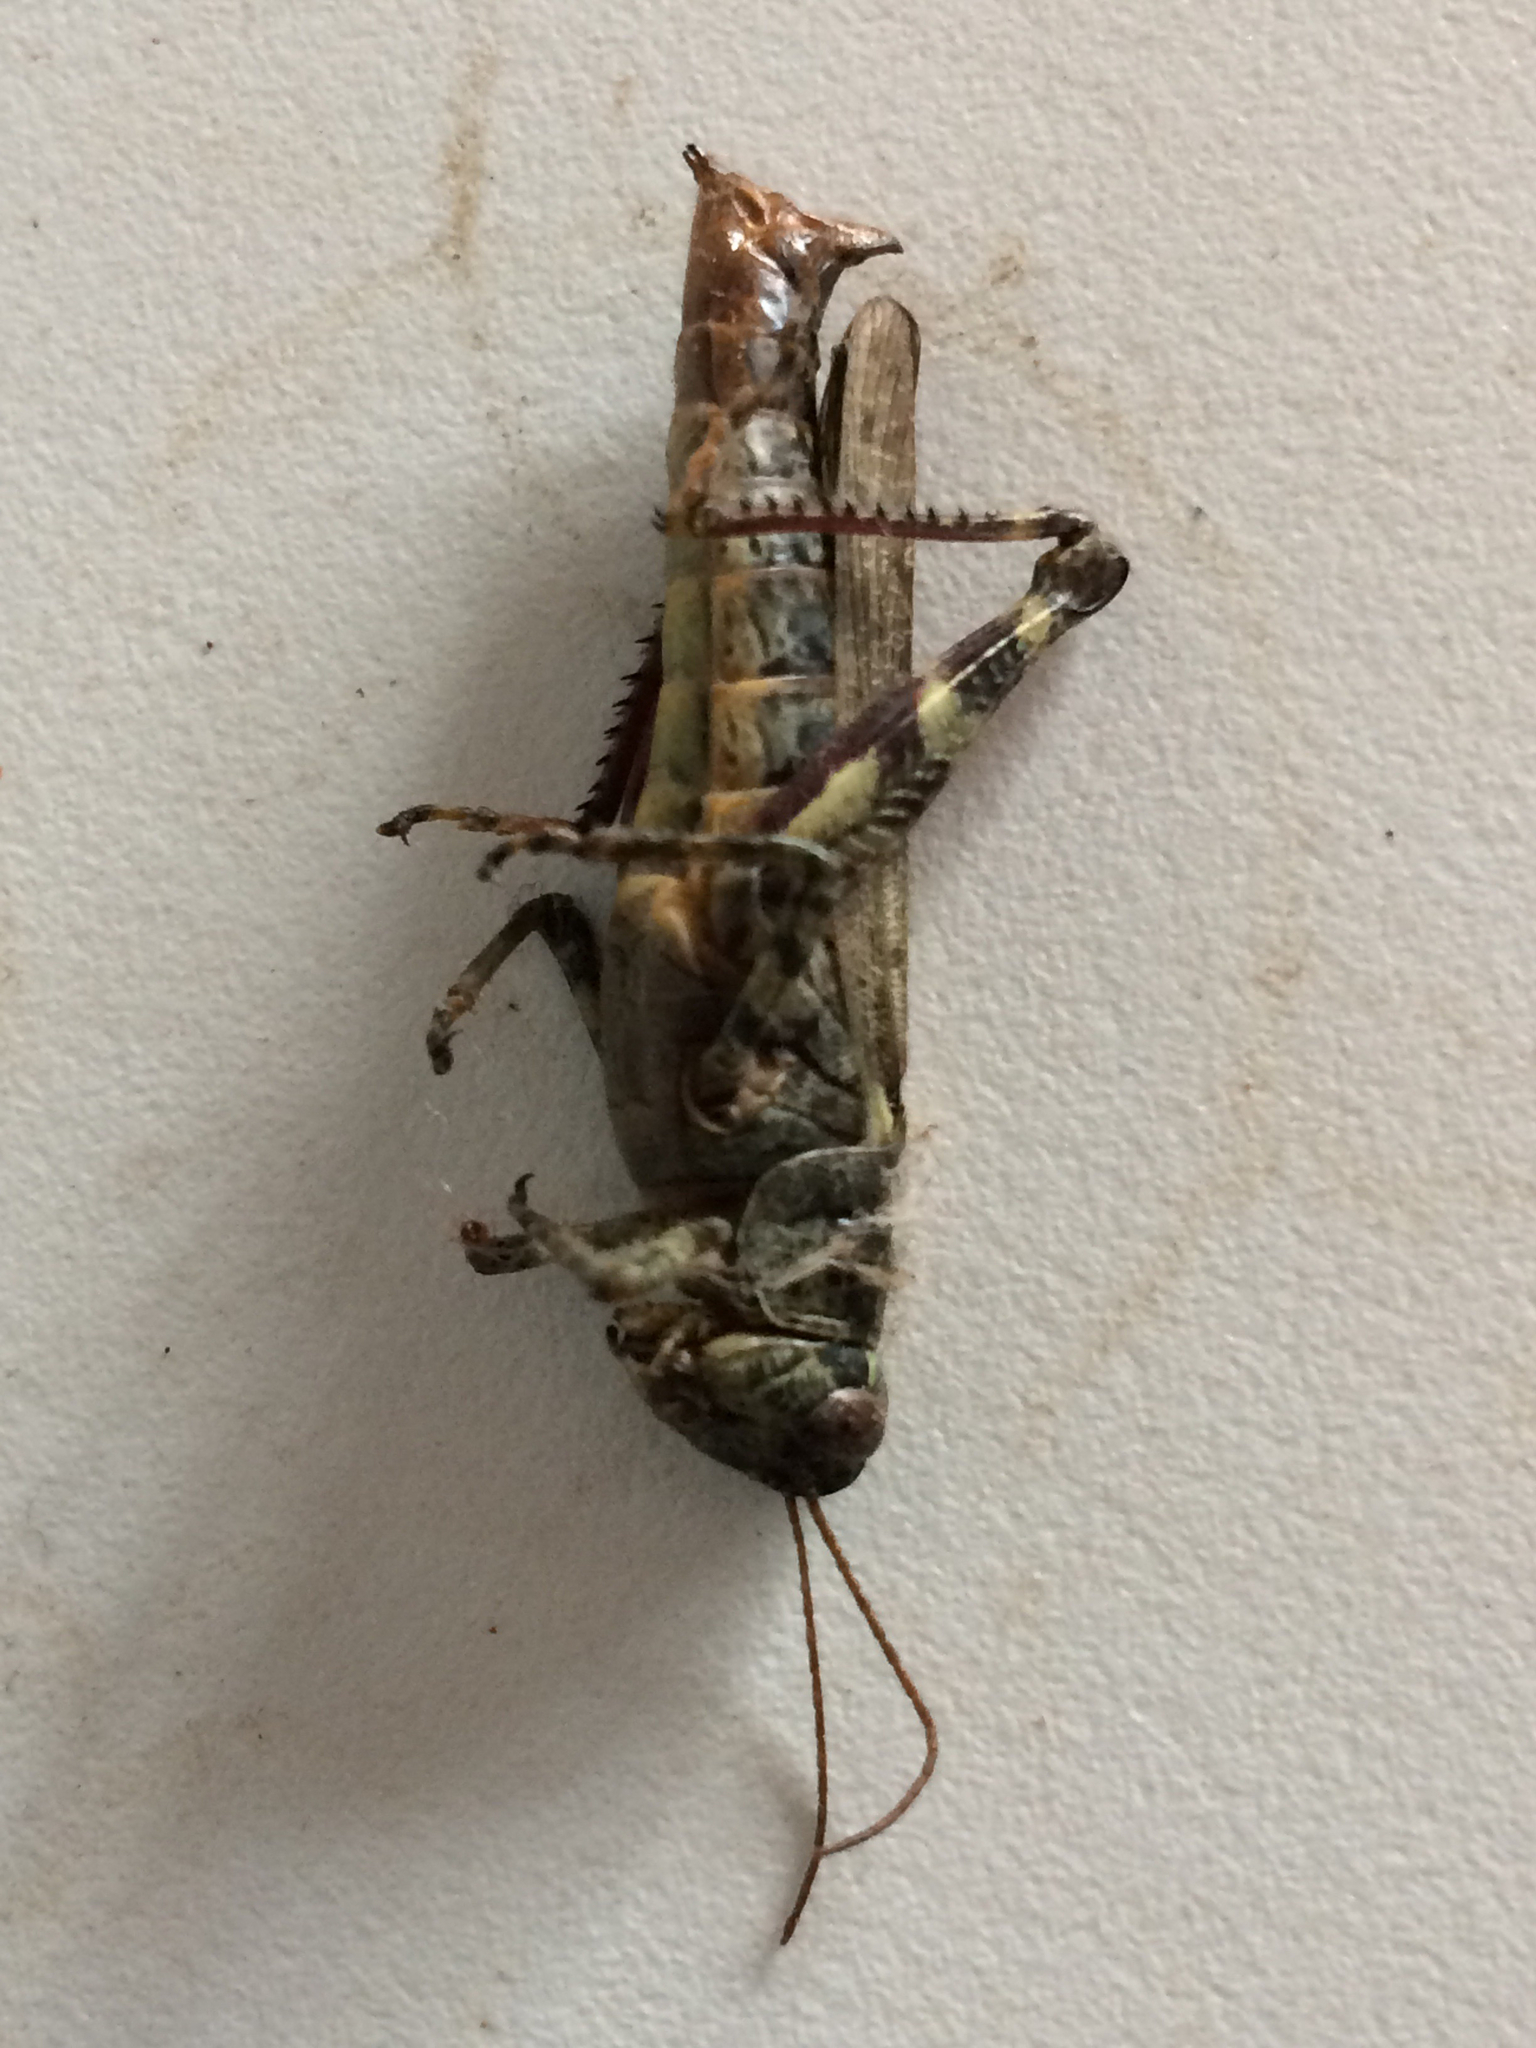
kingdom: Animalia
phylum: Arthropoda
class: Insecta
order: Orthoptera
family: Acrididae
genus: Melanoplus
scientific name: Melanoplus punctulatus
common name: Pine-tree spur-throat grasshopper
